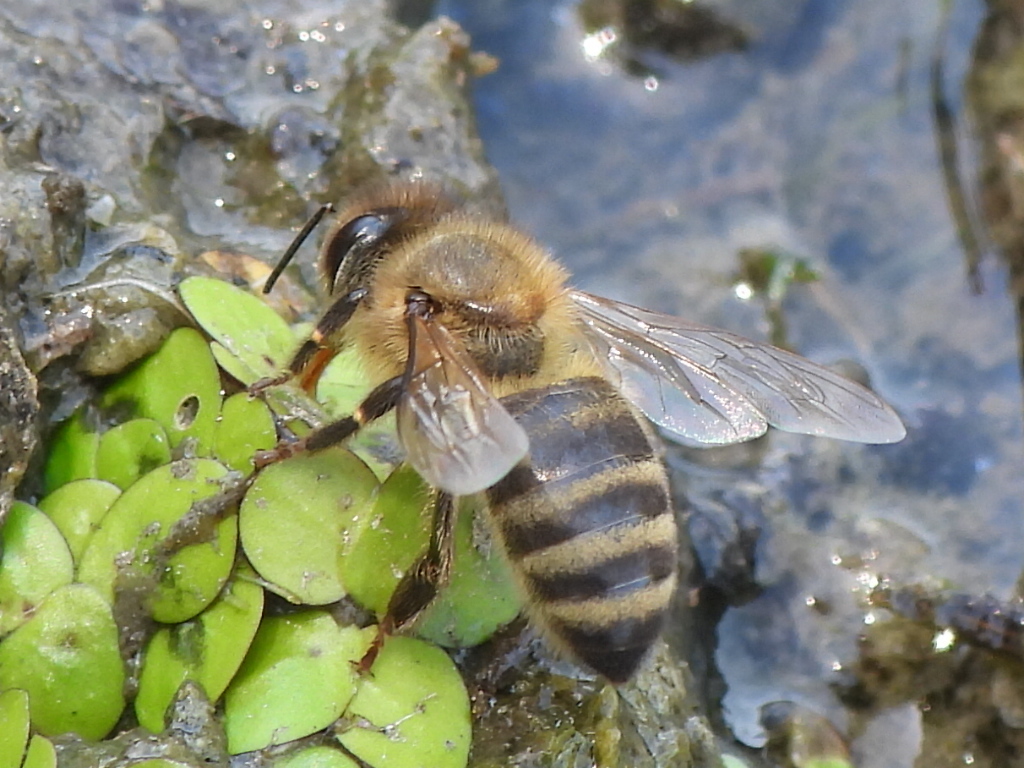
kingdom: Animalia
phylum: Arthropoda
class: Insecta
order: Hymenoptera
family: Apidae
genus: Apis
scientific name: Apis mellifera
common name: Honey bee
